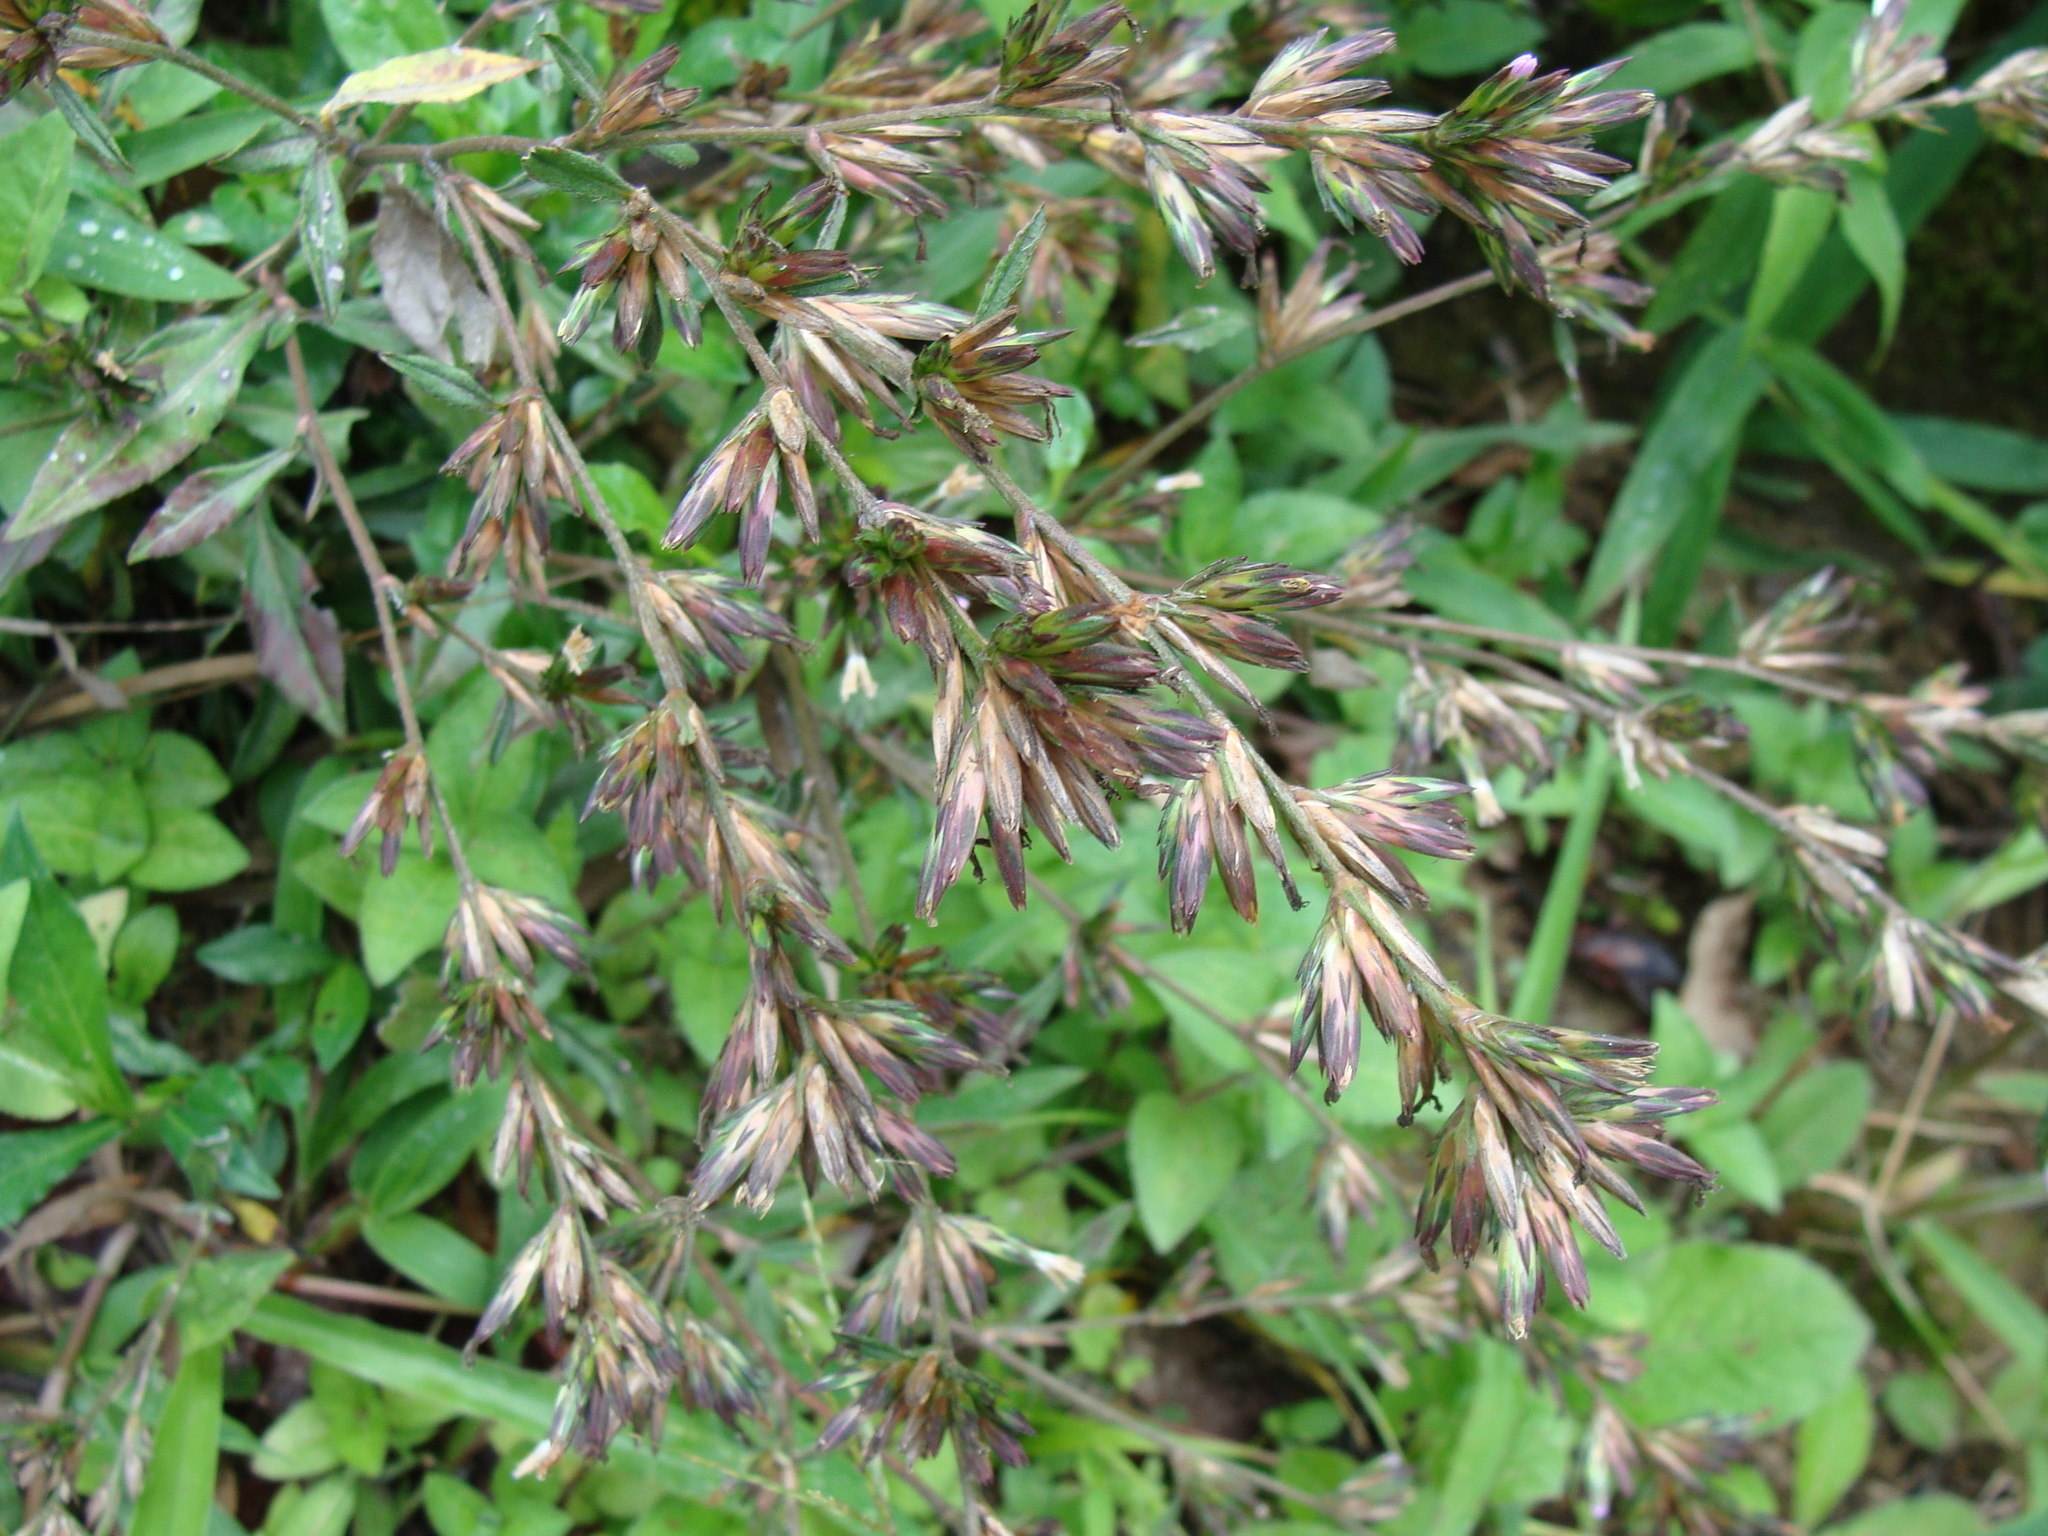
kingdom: Plantae
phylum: Tracheophyta
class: Magnoliopsida
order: Asterales
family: Asteraceae
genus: Pseudelephantopus
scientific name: Pseudelephantopus spicatus
